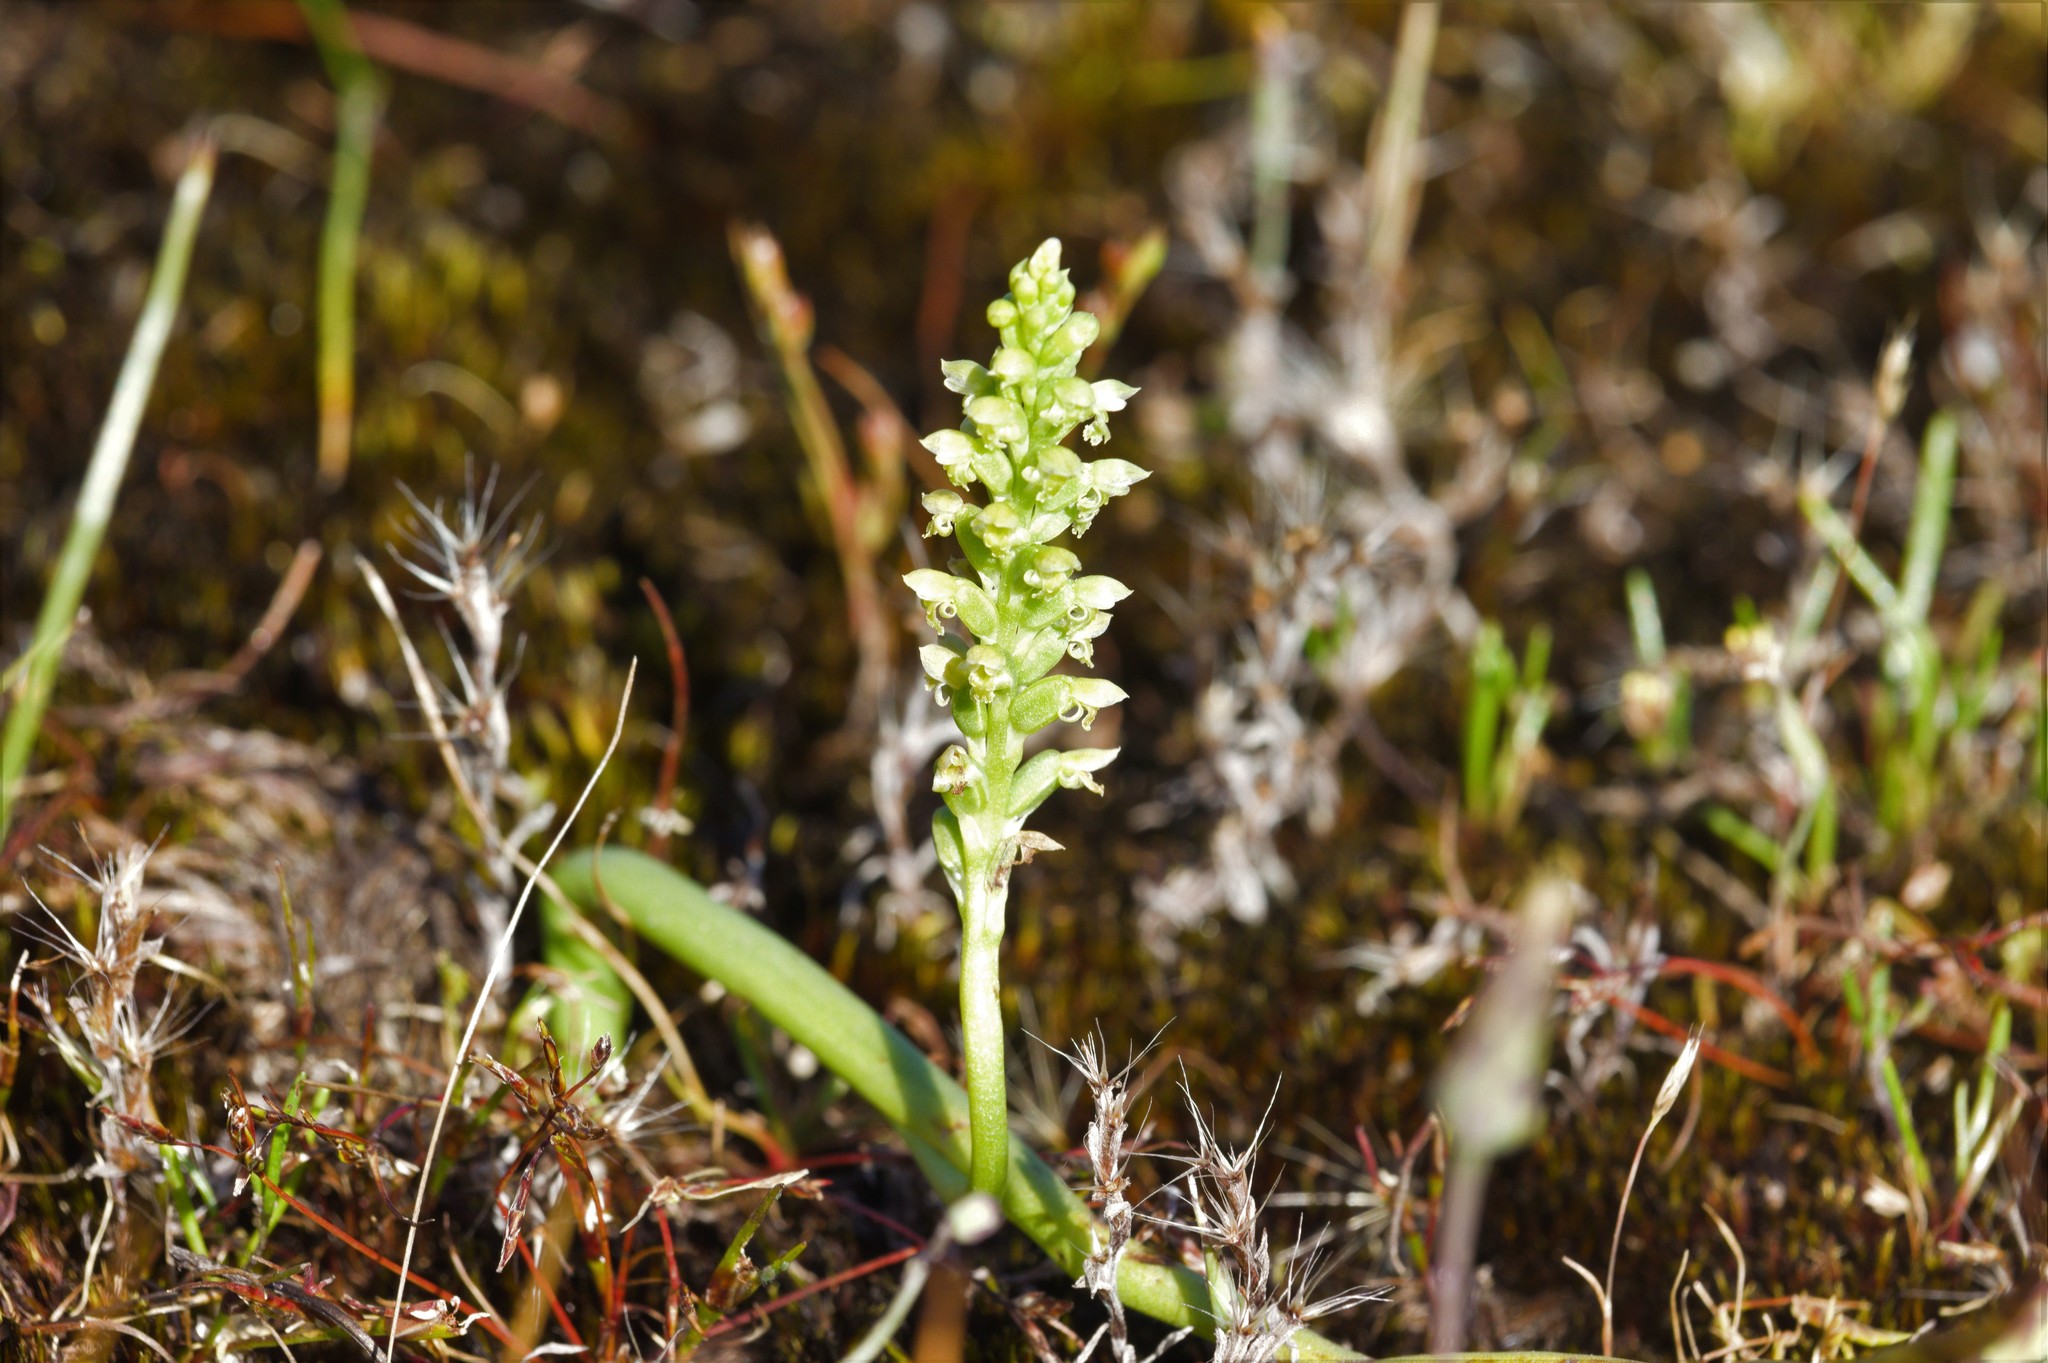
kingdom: Plantae
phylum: Tracheophyta
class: Liliopsida
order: Asparagales
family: Orchidaceae
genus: Microtis
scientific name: Microtis media
